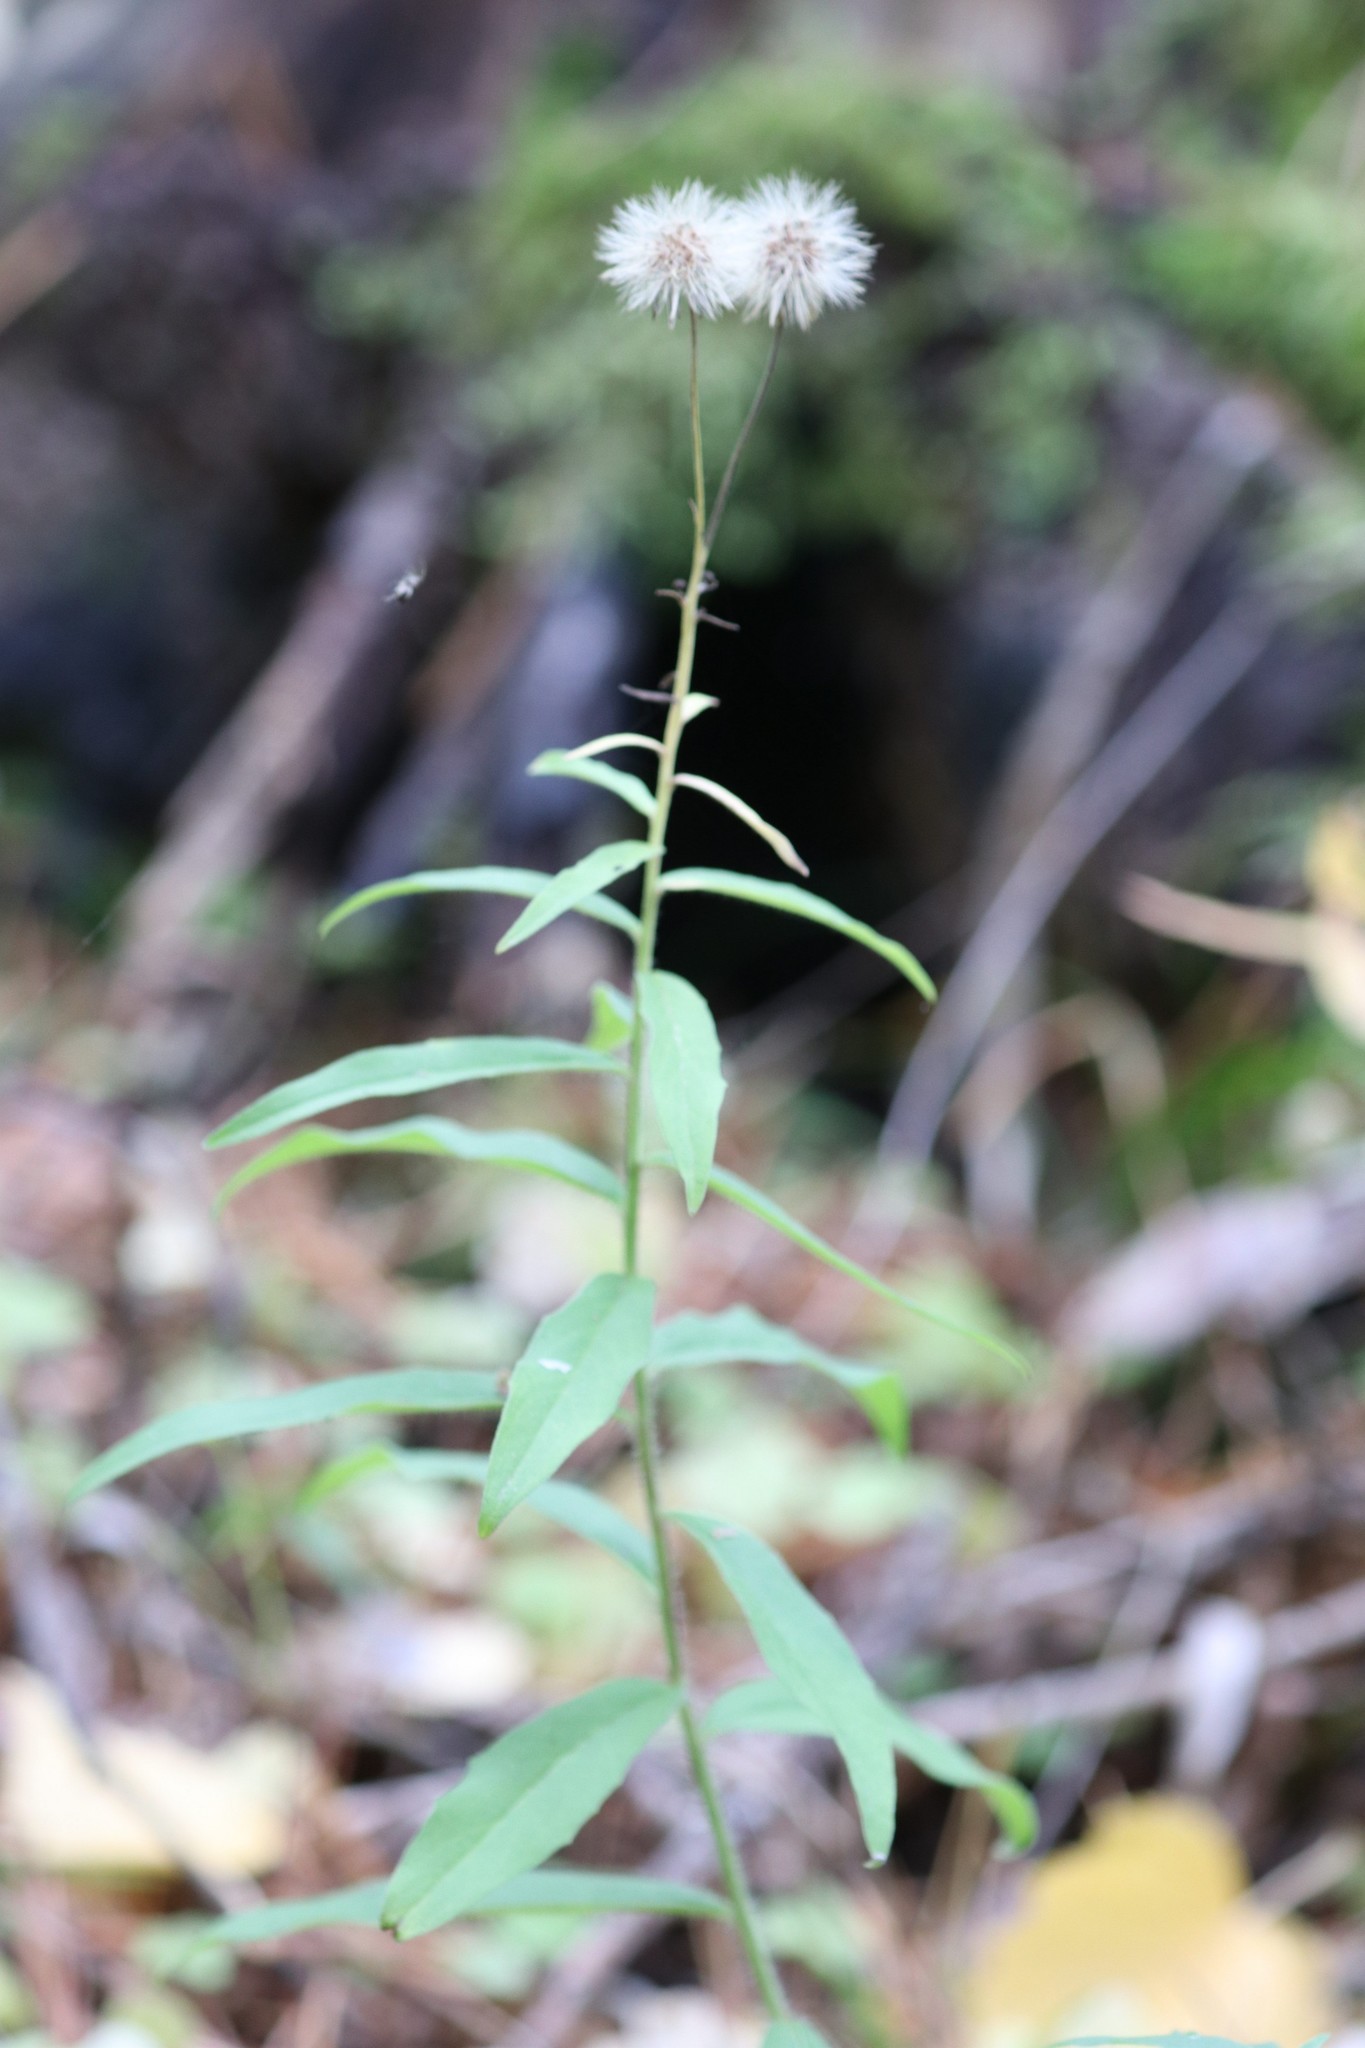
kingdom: Plantae
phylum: Tracheophyta
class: Magnoliopsida
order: Asterales
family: Asteraceae
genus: Hieracium
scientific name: Hieracium umbellatum
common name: Northern hawkweed
